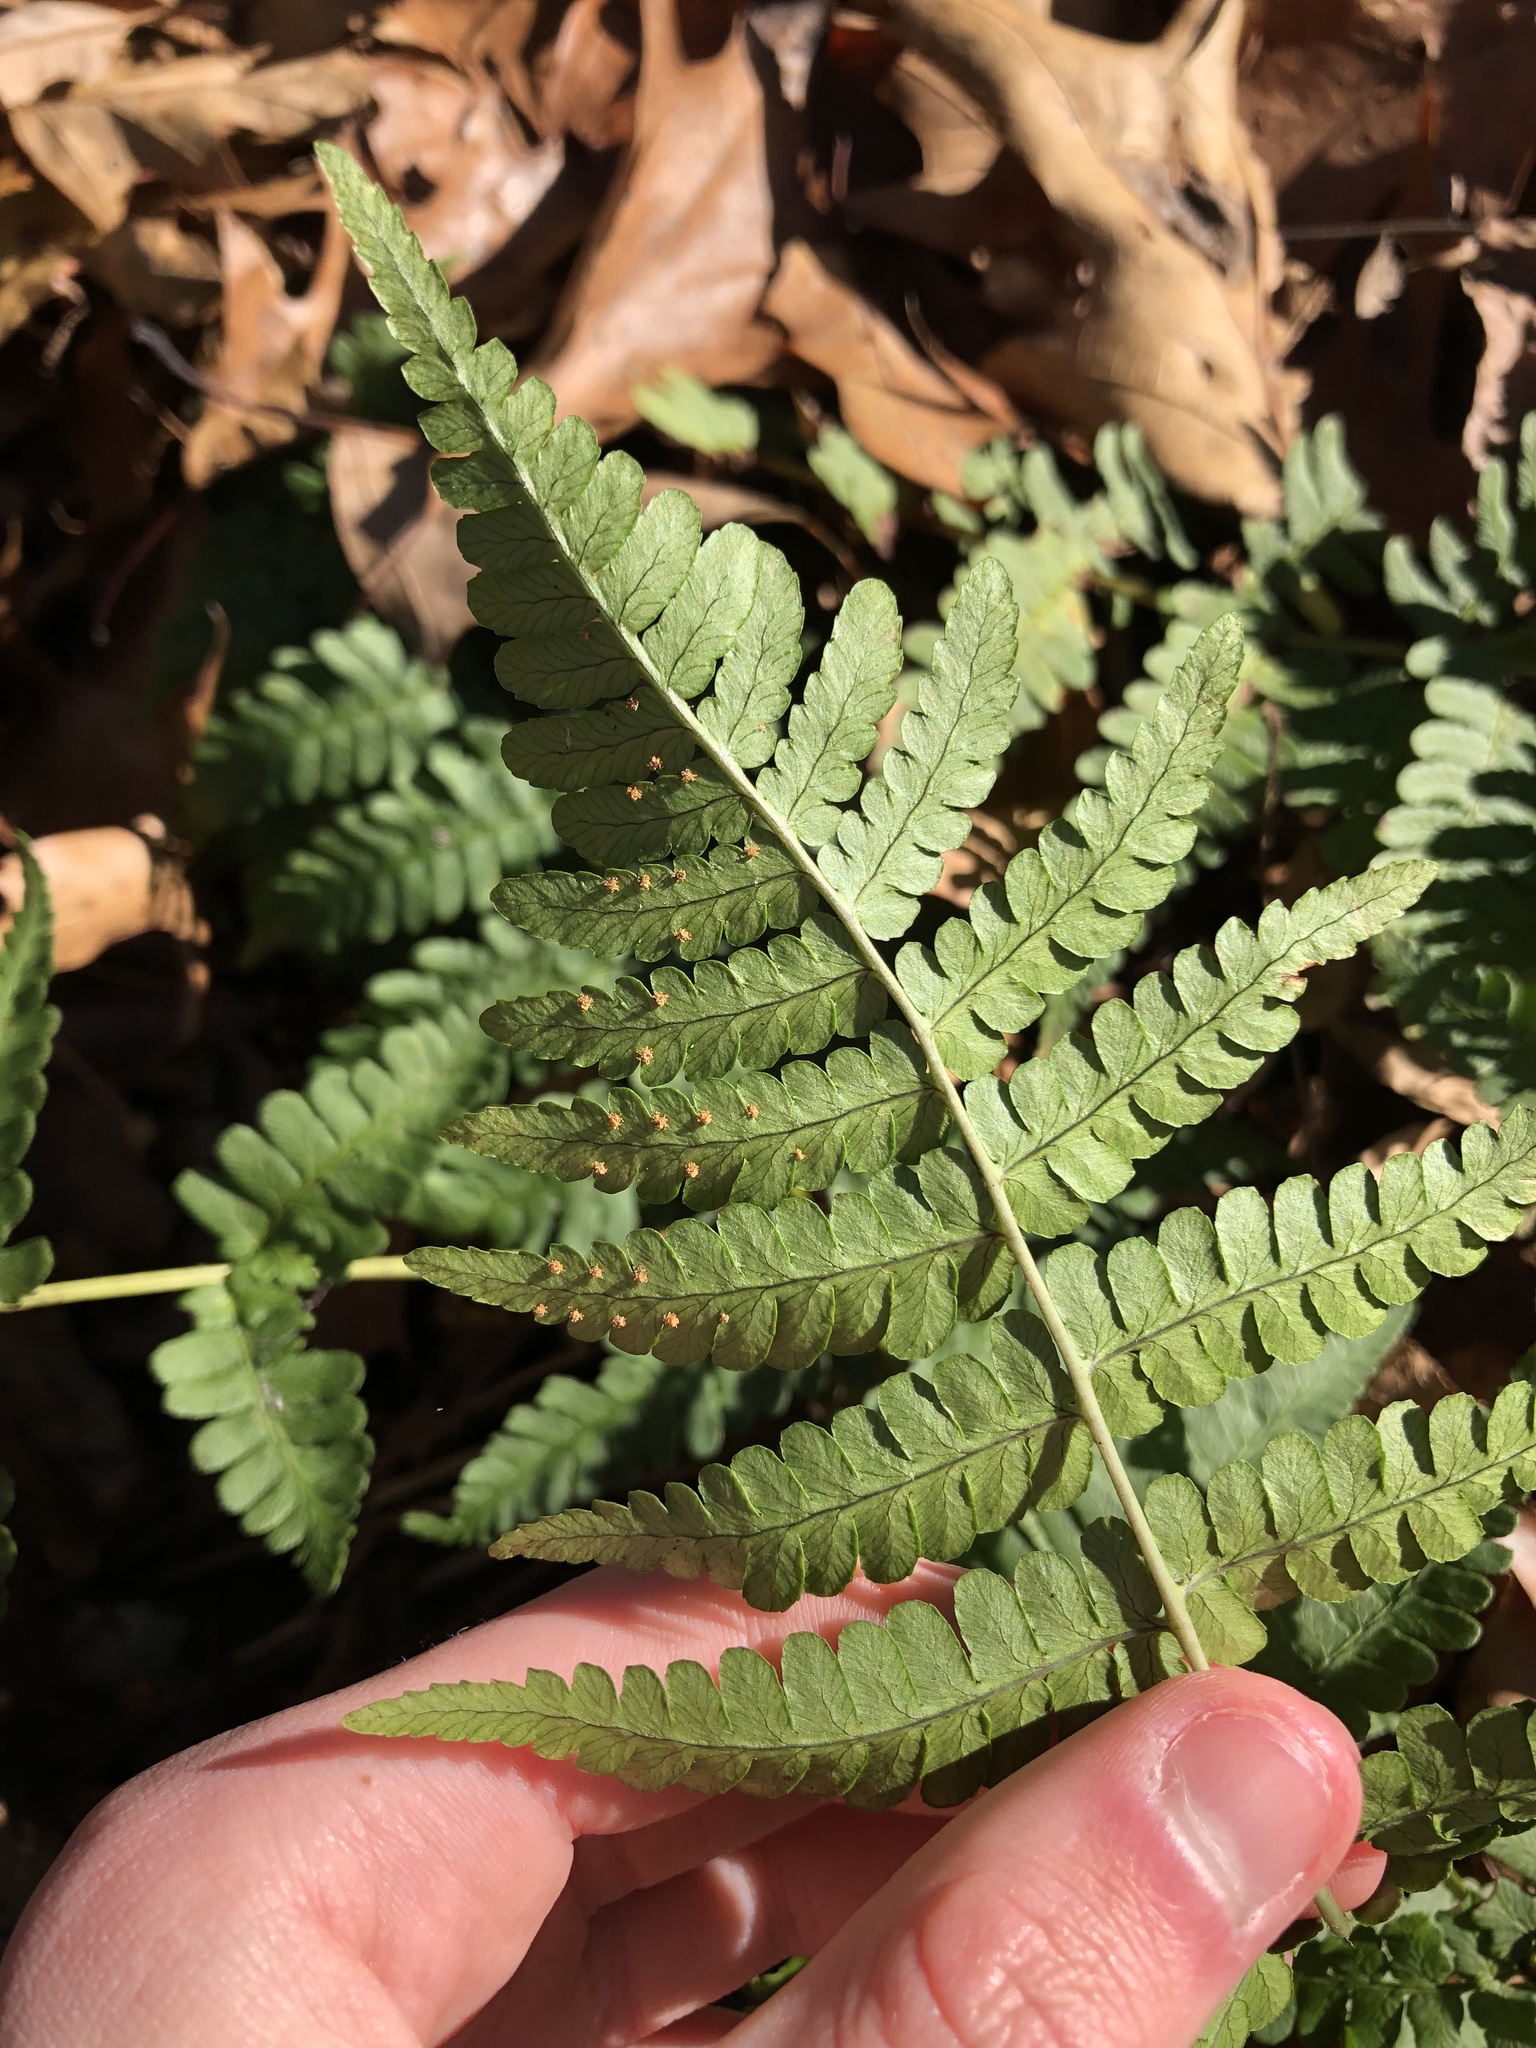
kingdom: Plantae
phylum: Tracheophyta
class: Polypodiopsida
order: Polypodiales
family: Dryopteridaceae
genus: Dryopteris
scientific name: Dryopteris marginalis
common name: Marginal wood fern
